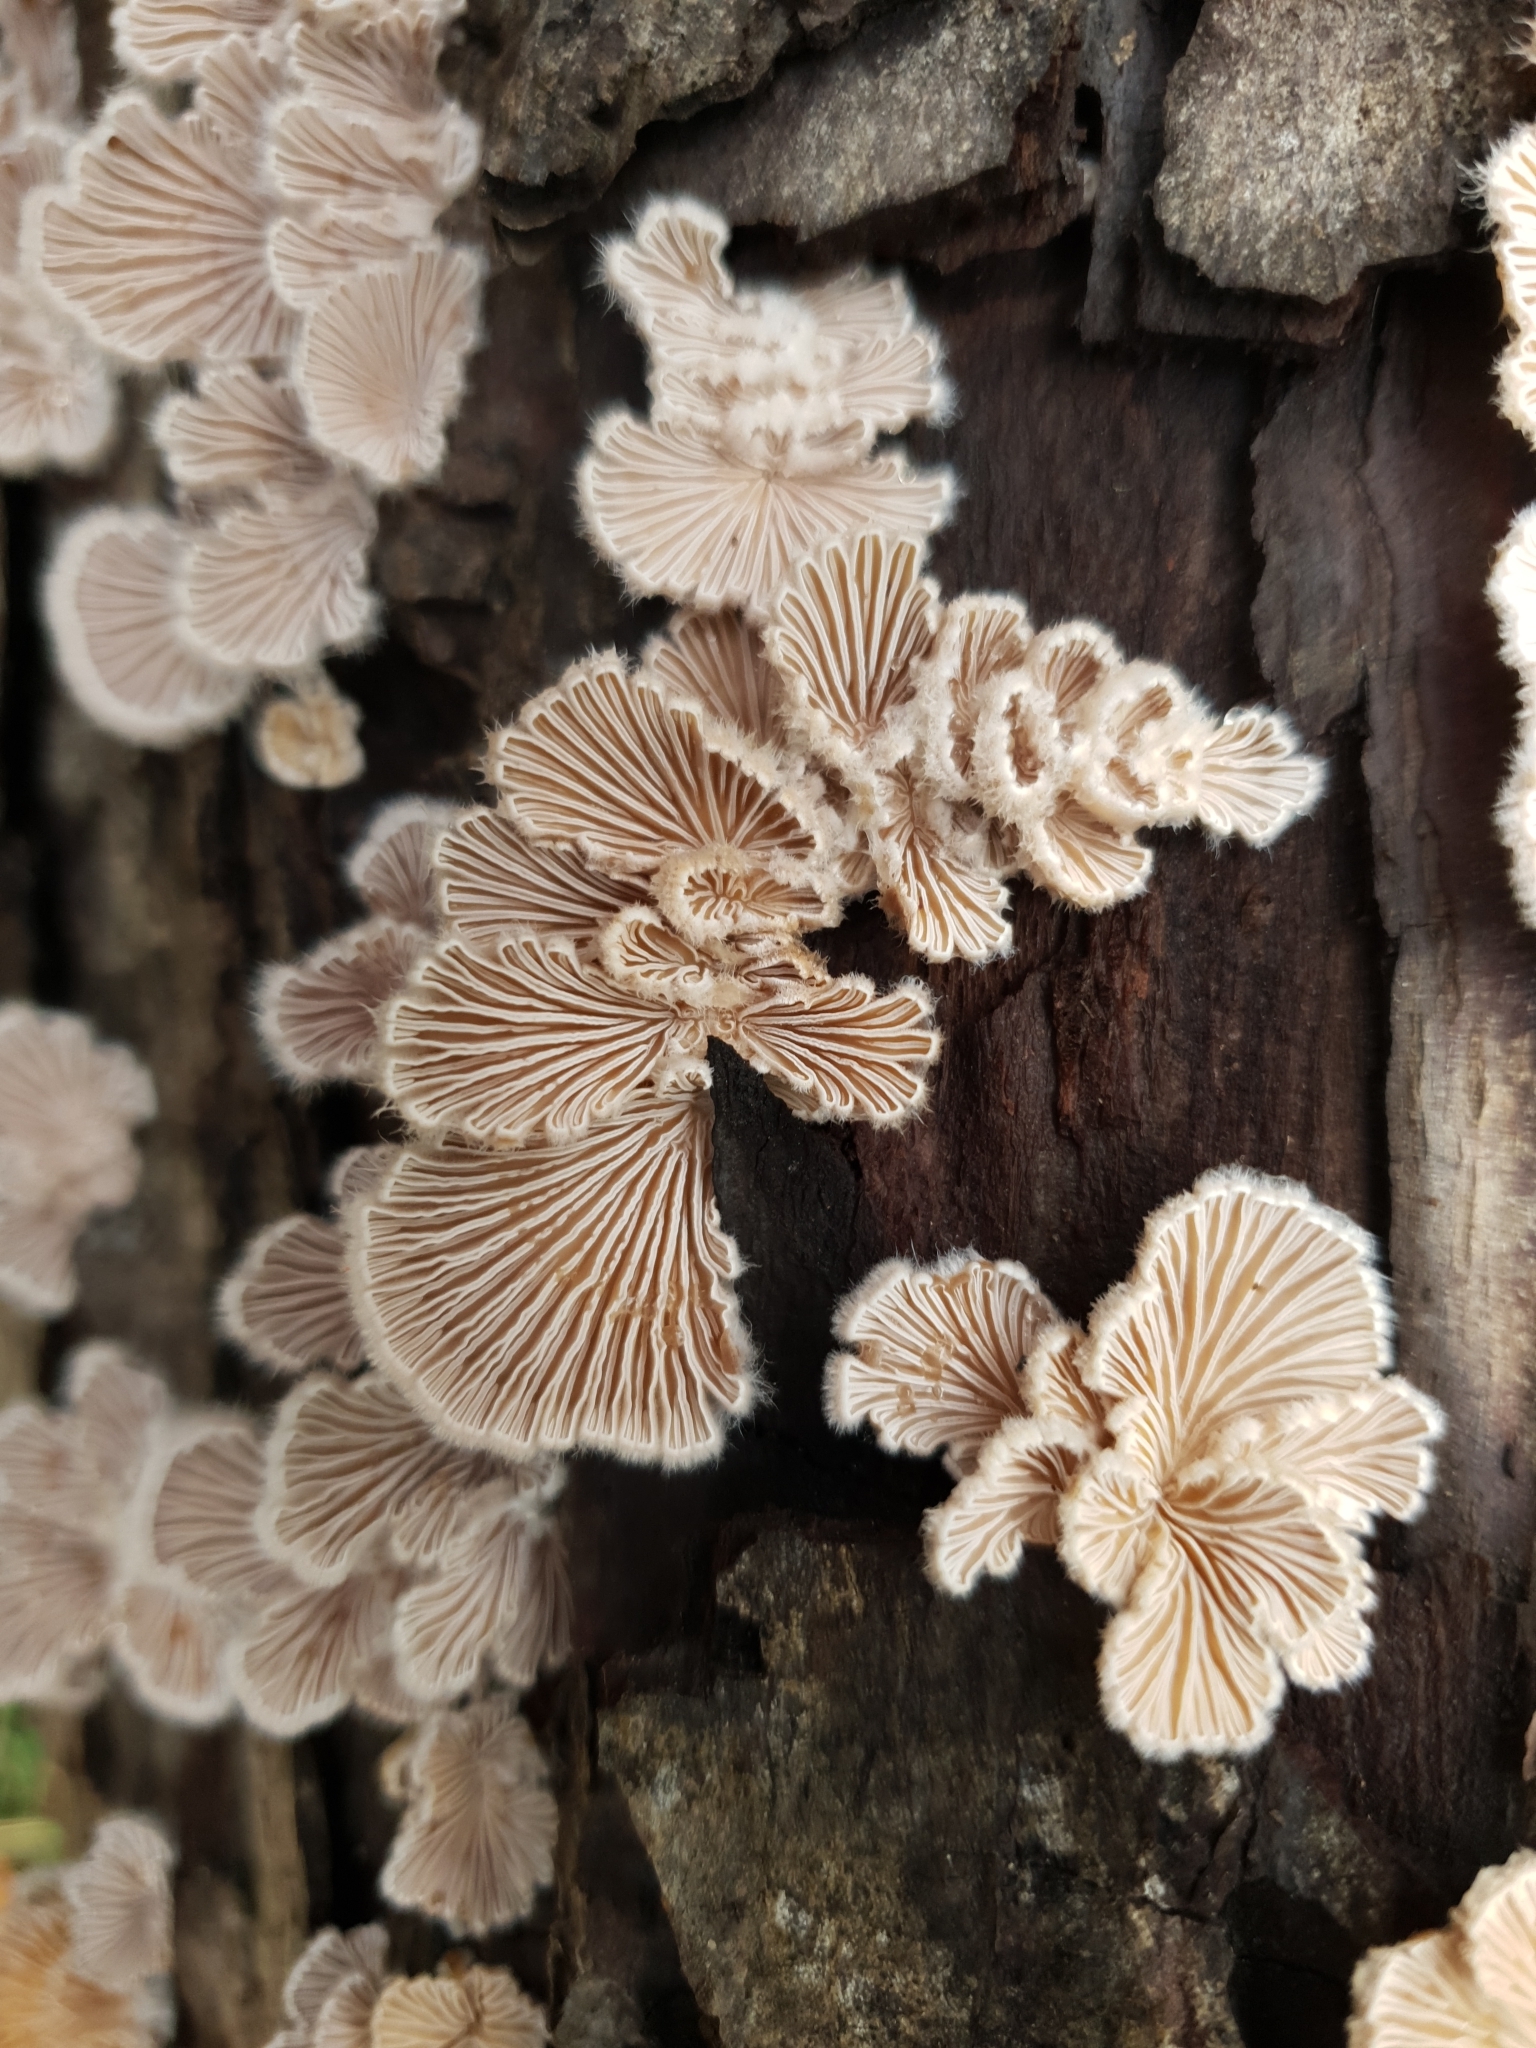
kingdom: Fungi
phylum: Basidiomycota
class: Agaricomycetes
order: Agaricales
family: Schizophyllaceae
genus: Schizophyllum
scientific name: Schizophyllum commune
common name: Common porecrust
